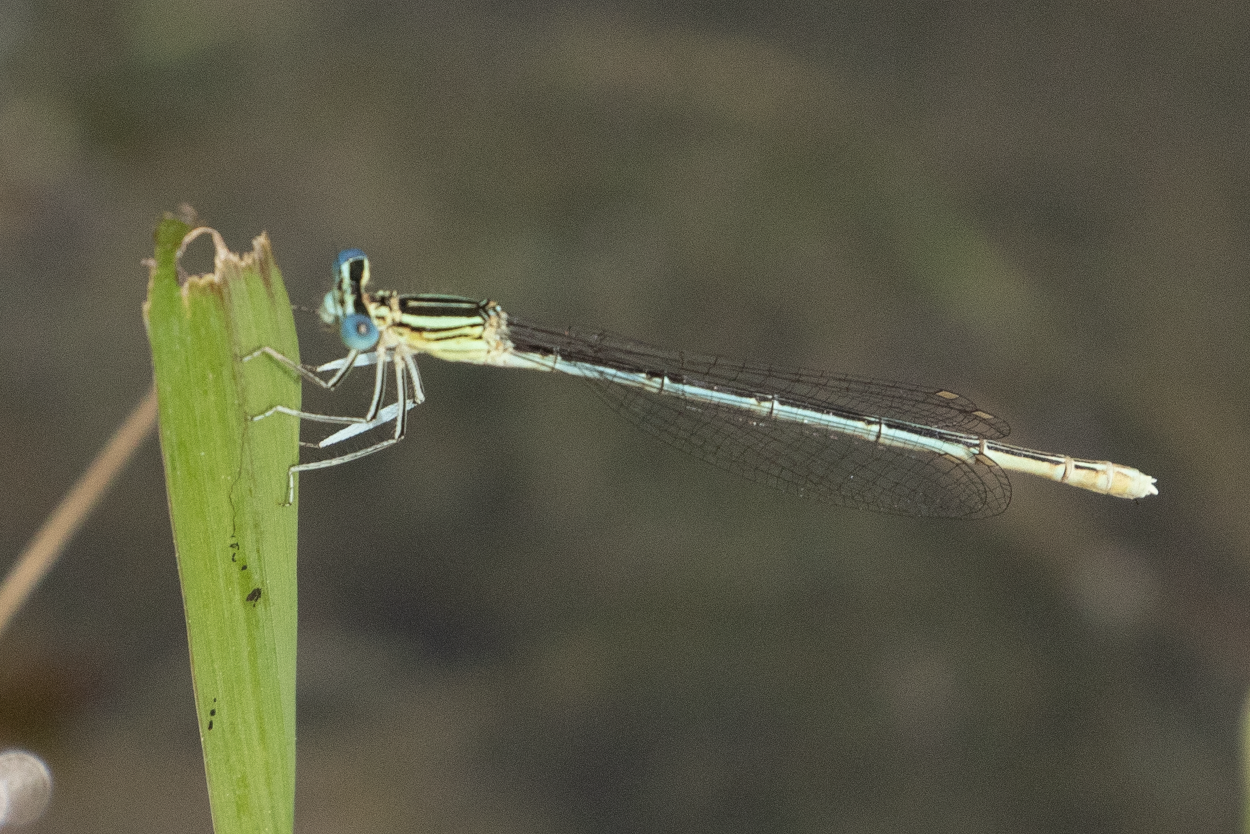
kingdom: Animalia
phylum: Arthropoda
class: Insecta
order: Odonata
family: Platycnemididae
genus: Platycnemis
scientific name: Platycnemis pennipes
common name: White-legged damselfly
